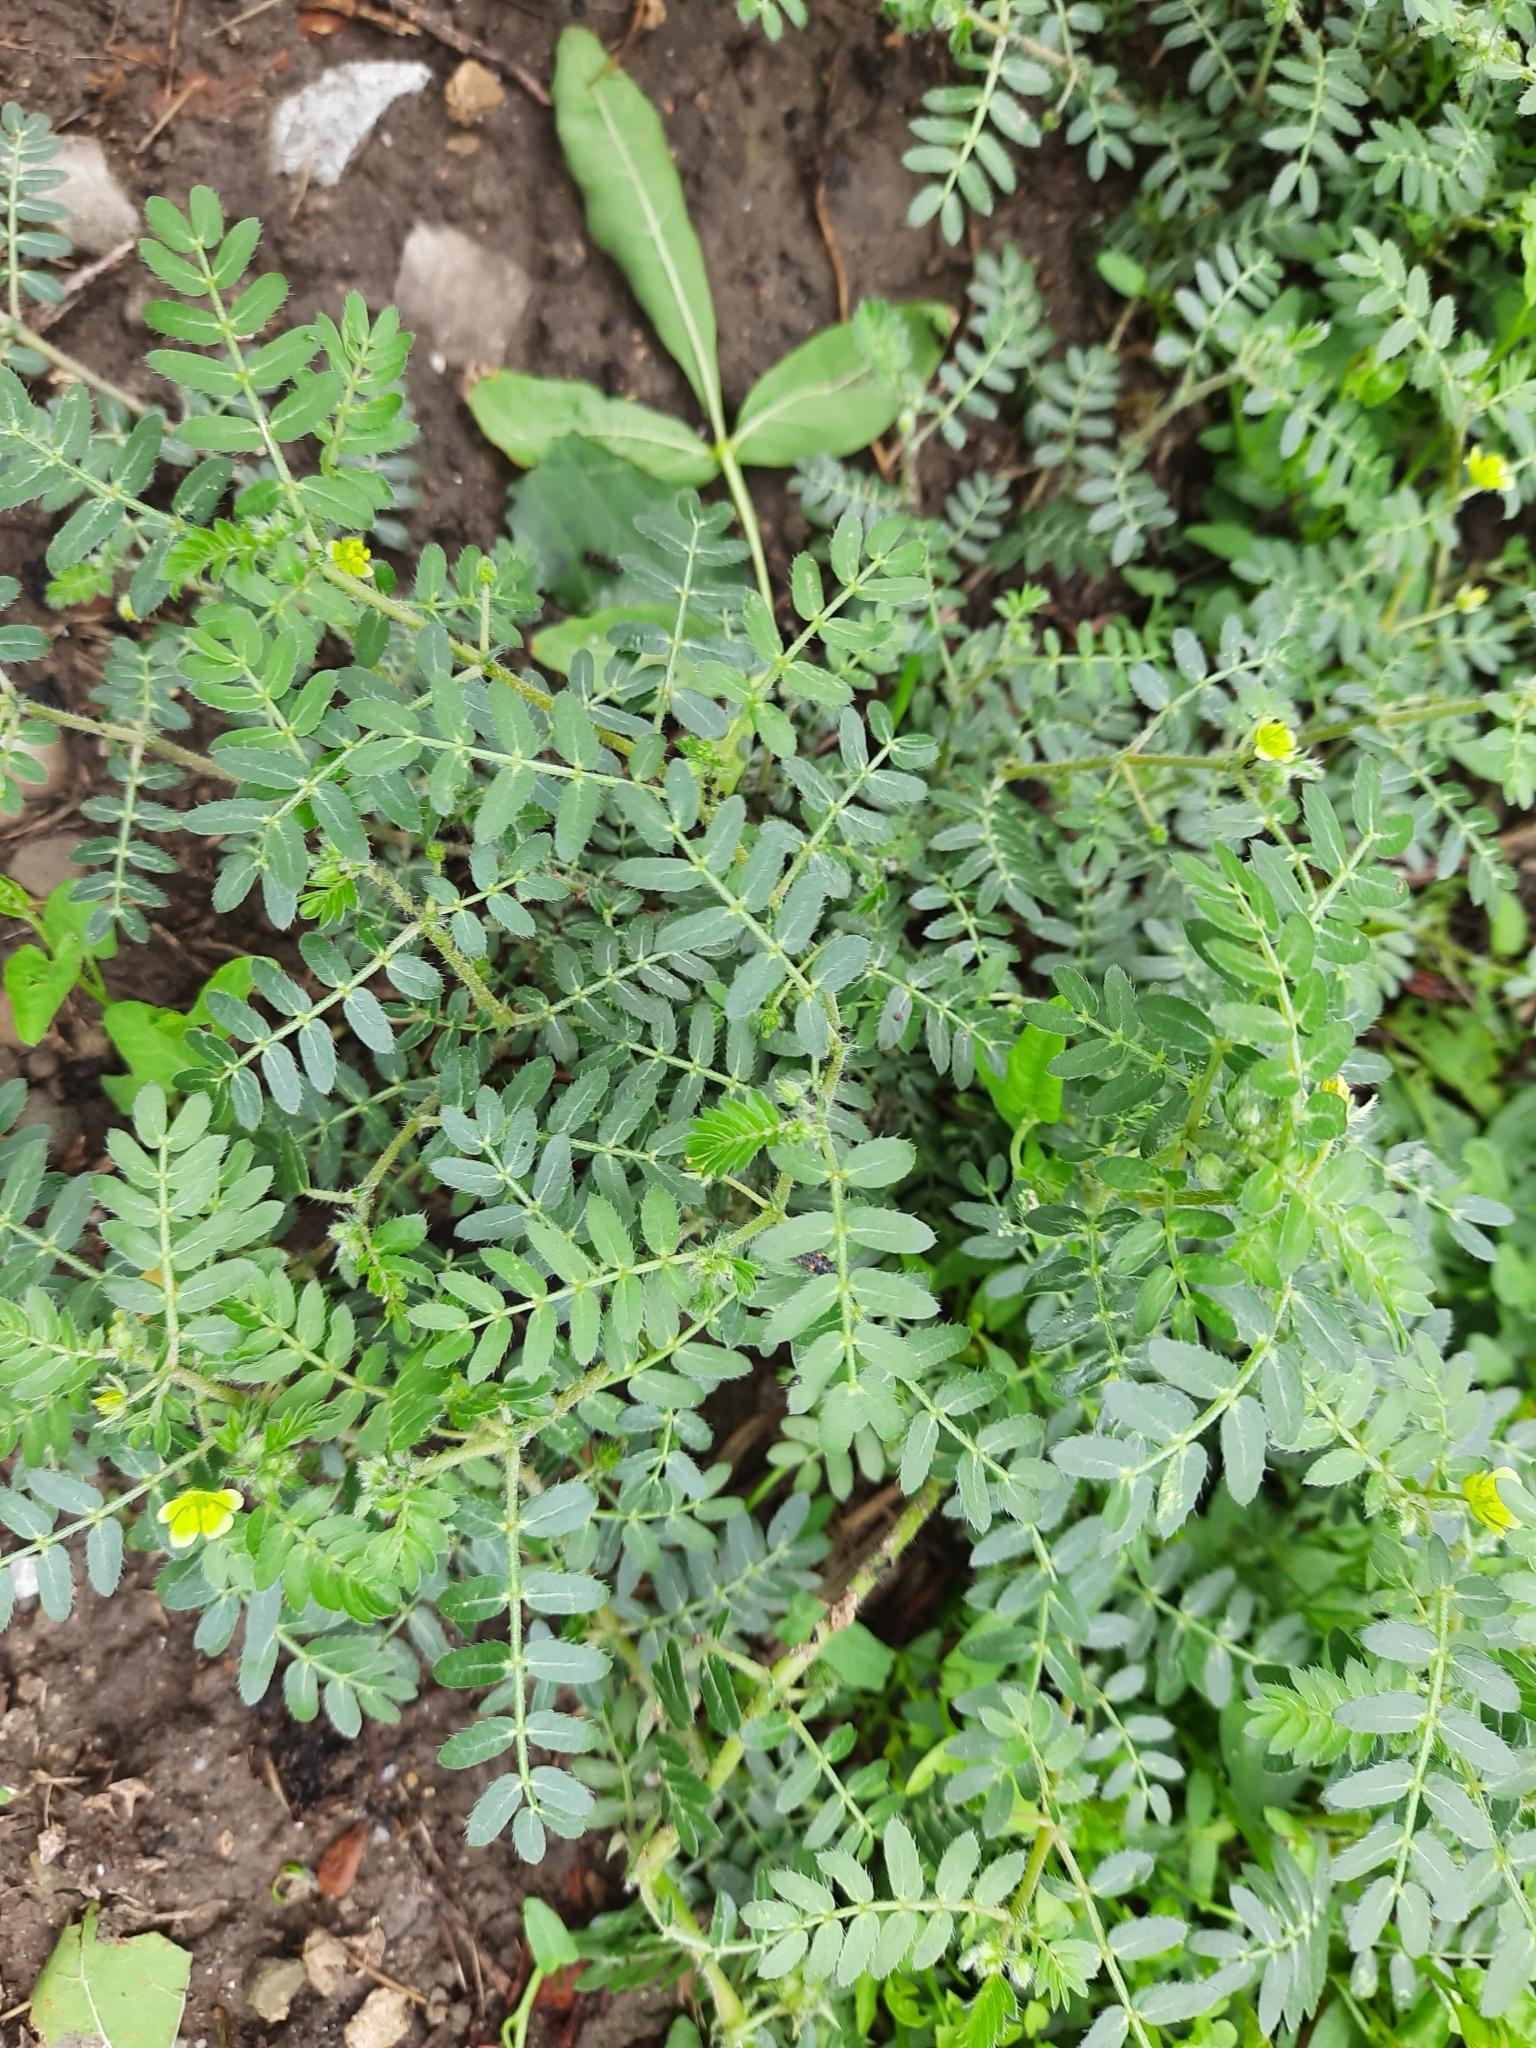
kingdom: Plantae
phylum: Tracheophyta
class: Magnoliopsida
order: Zygophyllales
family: Zygophyllaceae
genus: Tribulus
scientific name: Tribulus terrestris
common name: Puncturevine
